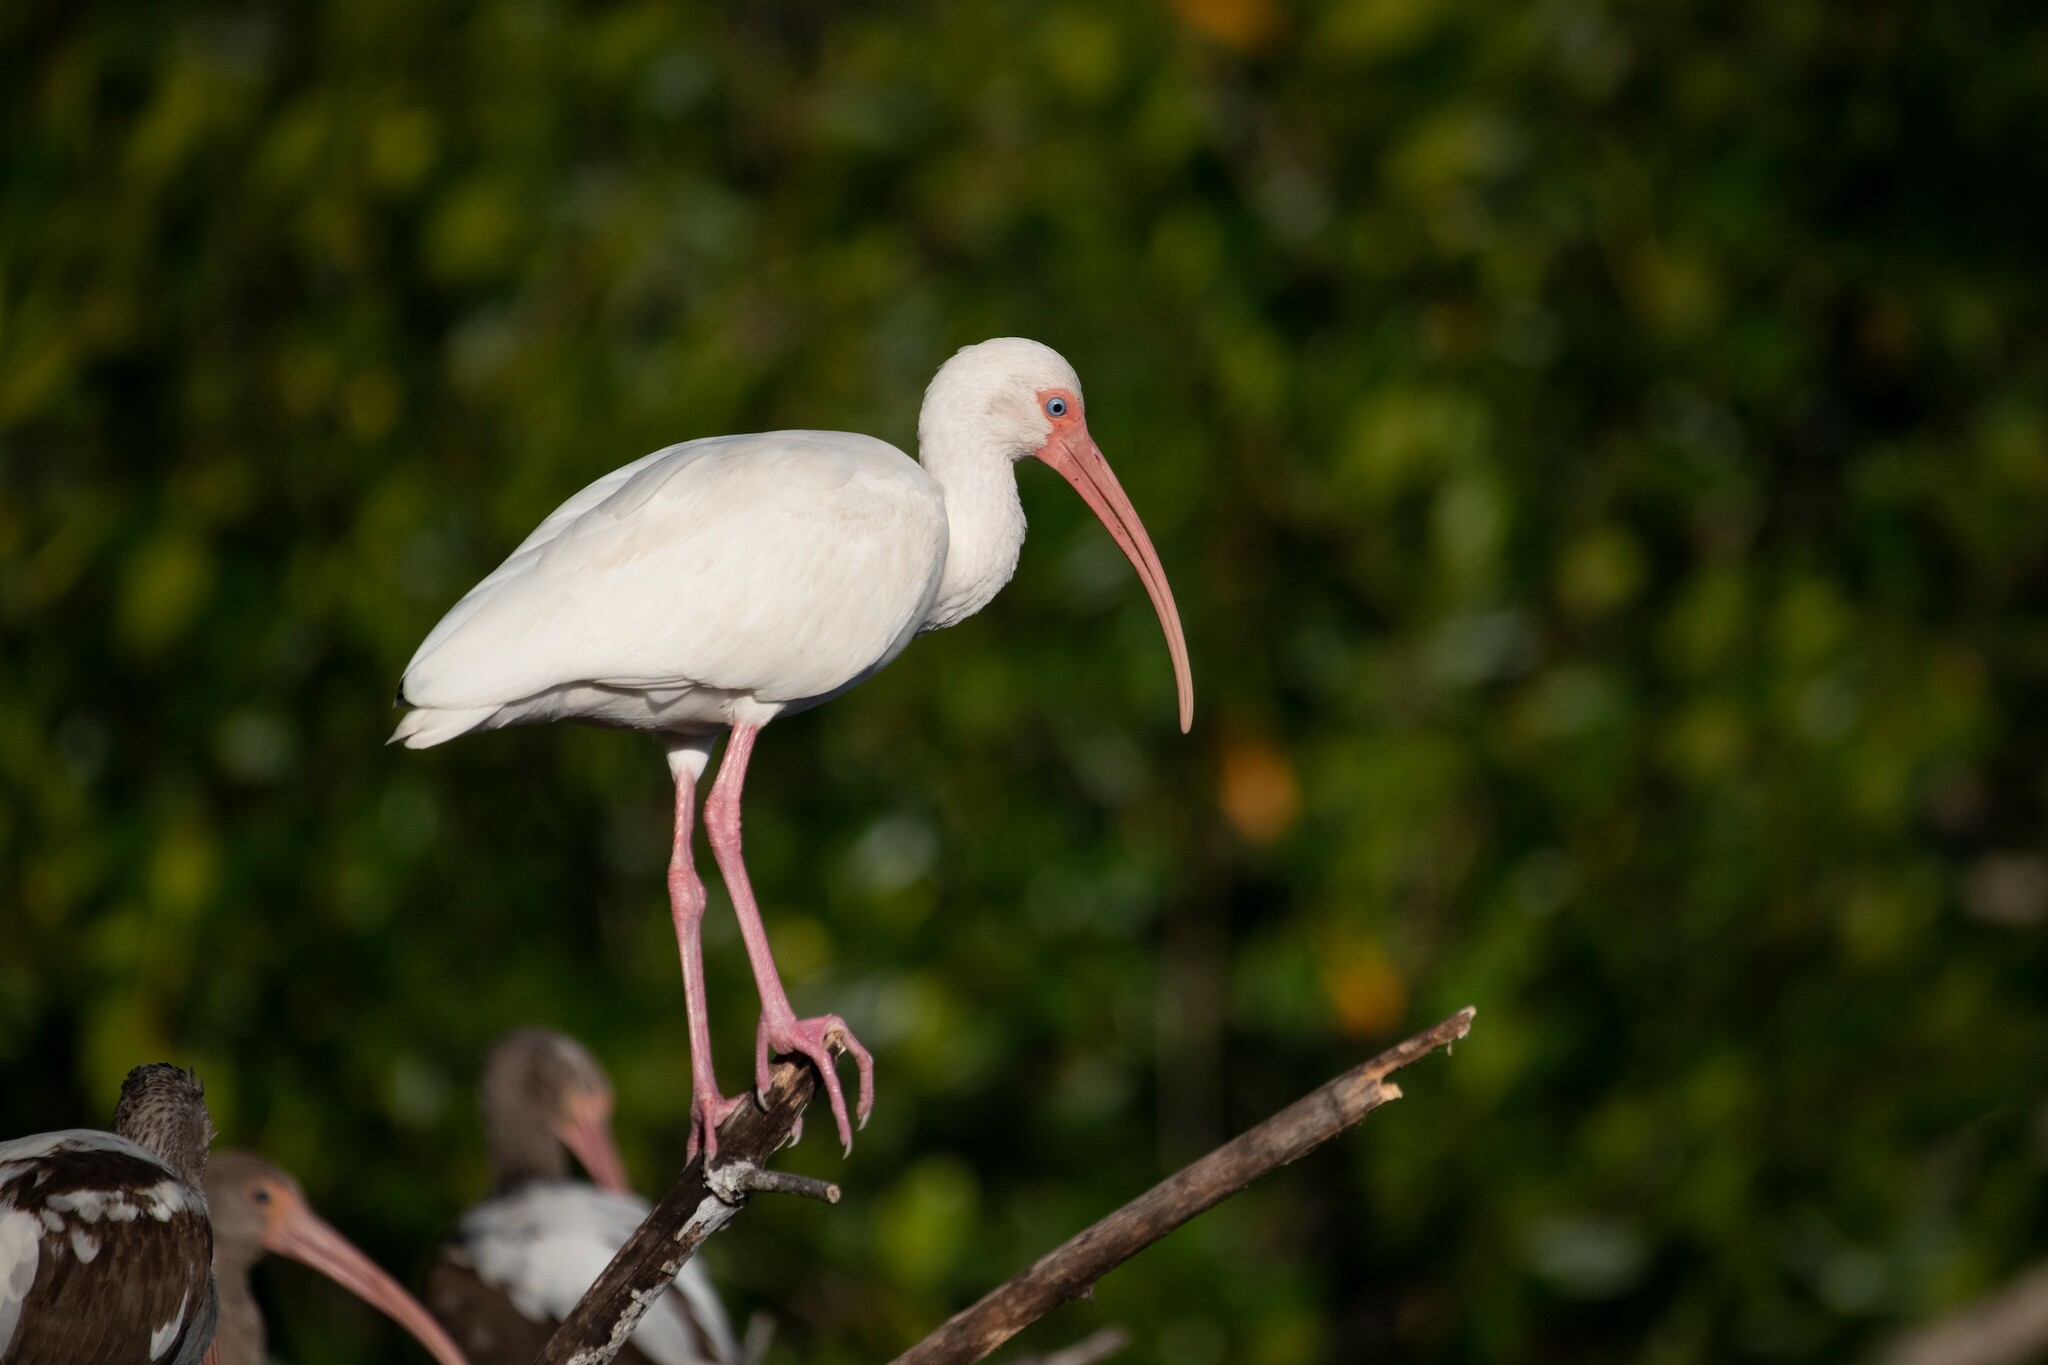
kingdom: Animalia
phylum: Chordata
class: Aves
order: Pelecaniformes
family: Threskiornithidae
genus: Eudocimus
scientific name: Eudocimus albus
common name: White ibis
